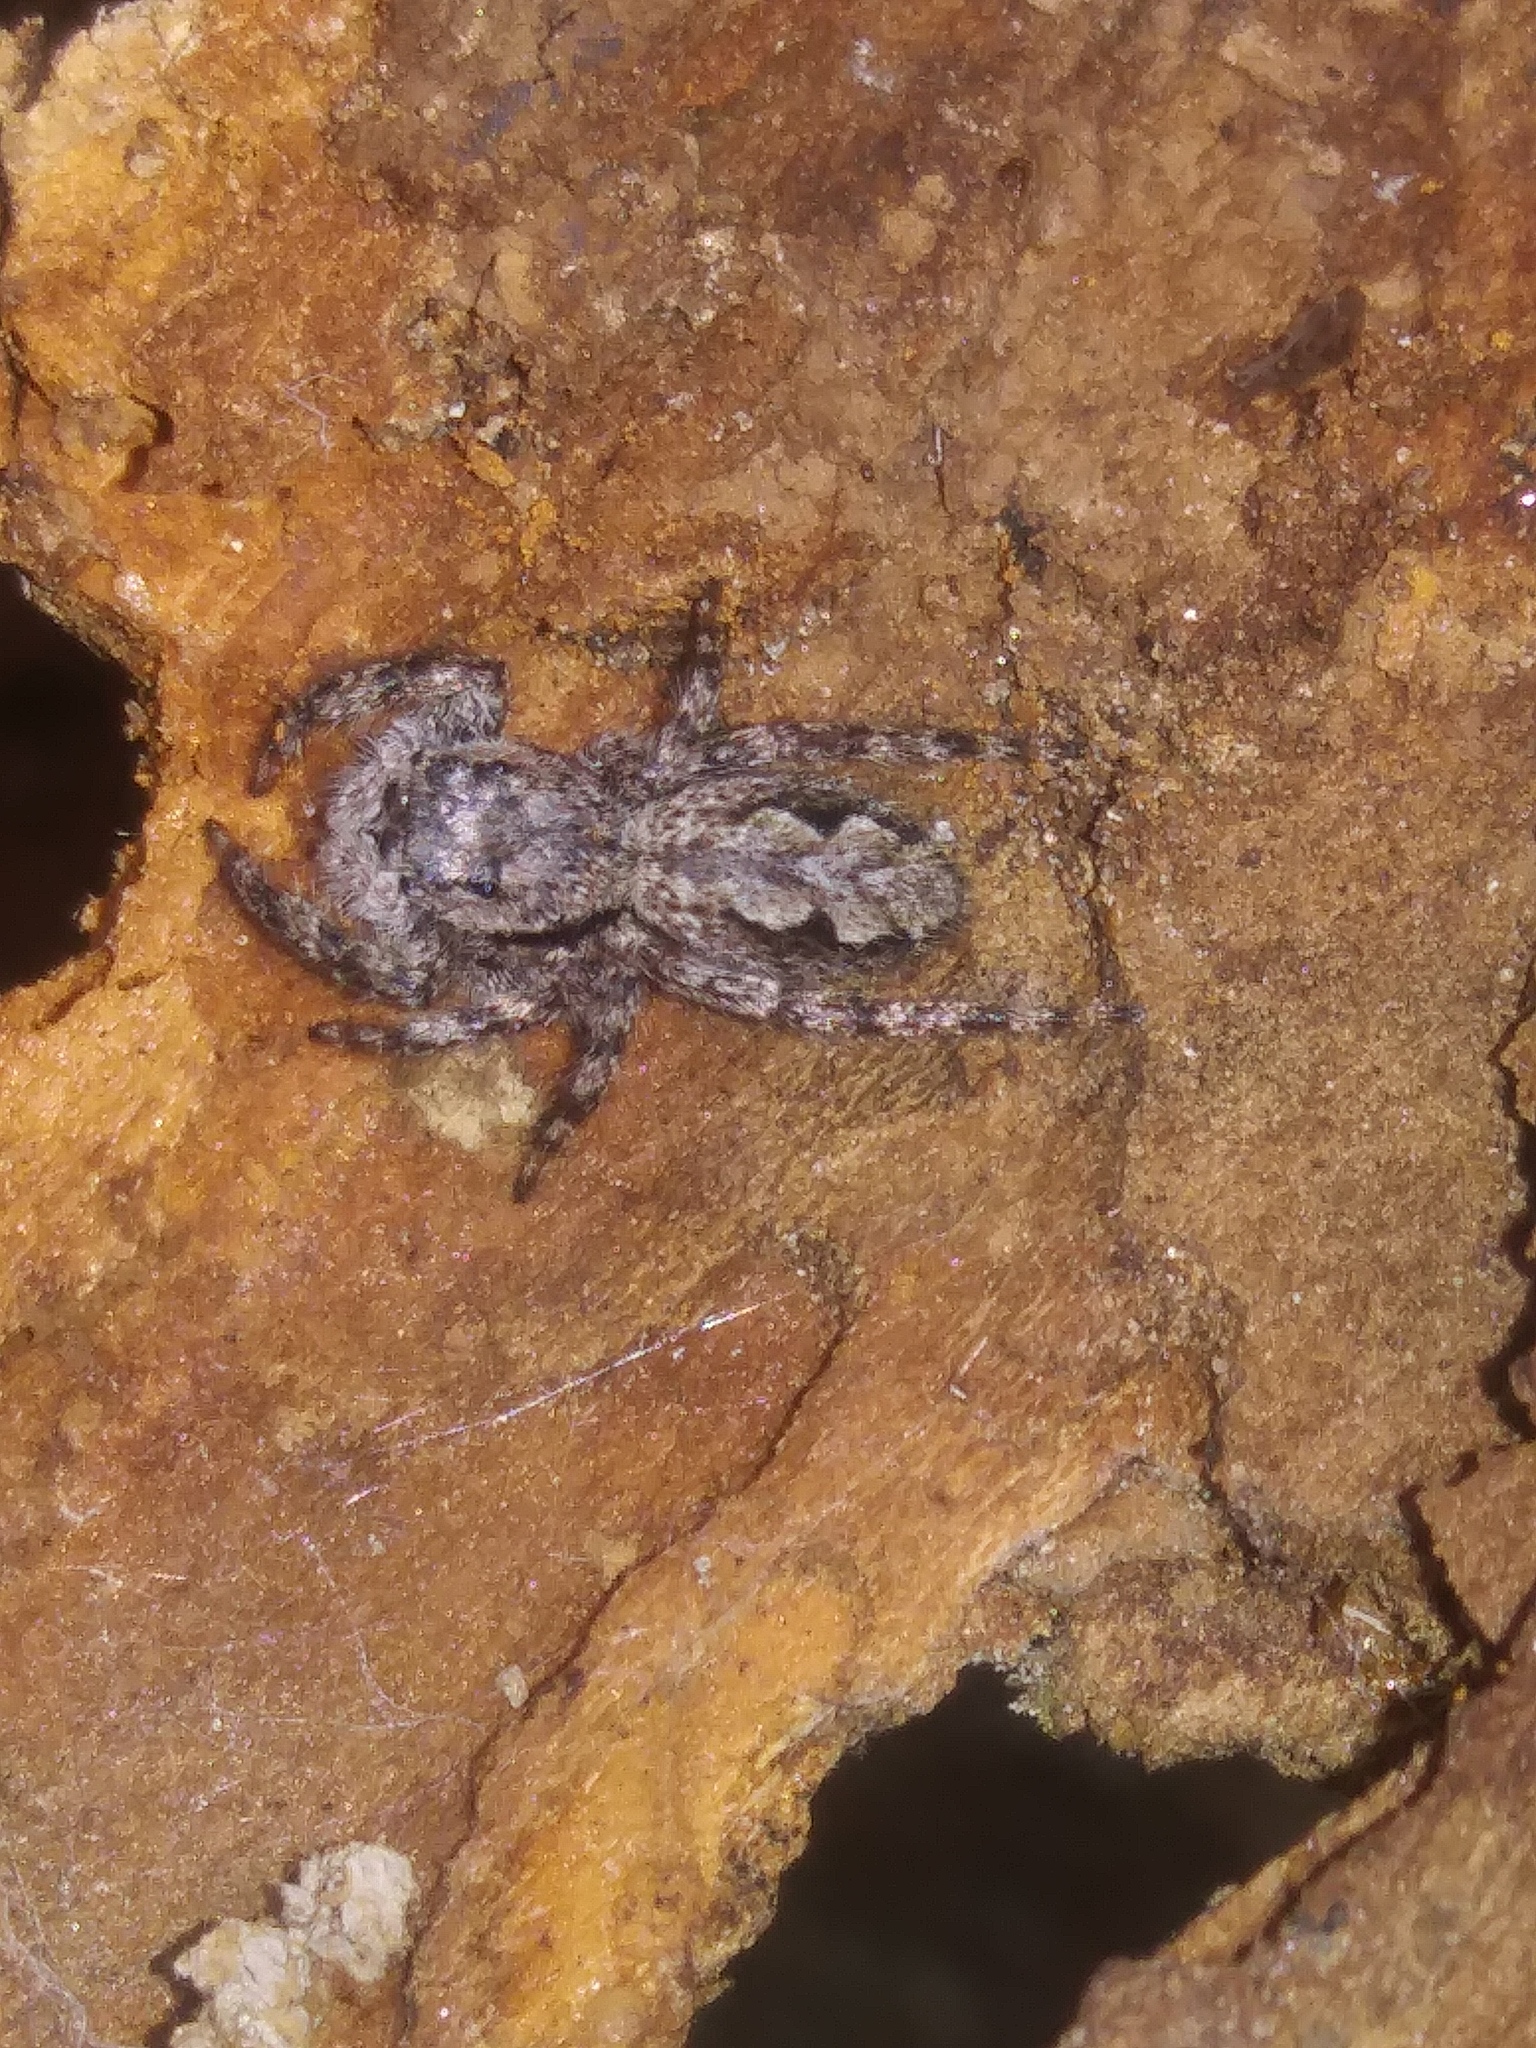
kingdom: Animalia
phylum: Arthropoda
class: Arachnida
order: Araneae
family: Salticidae
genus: Platycryptus
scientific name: Platycryptus undatus
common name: Tan jumping spider
